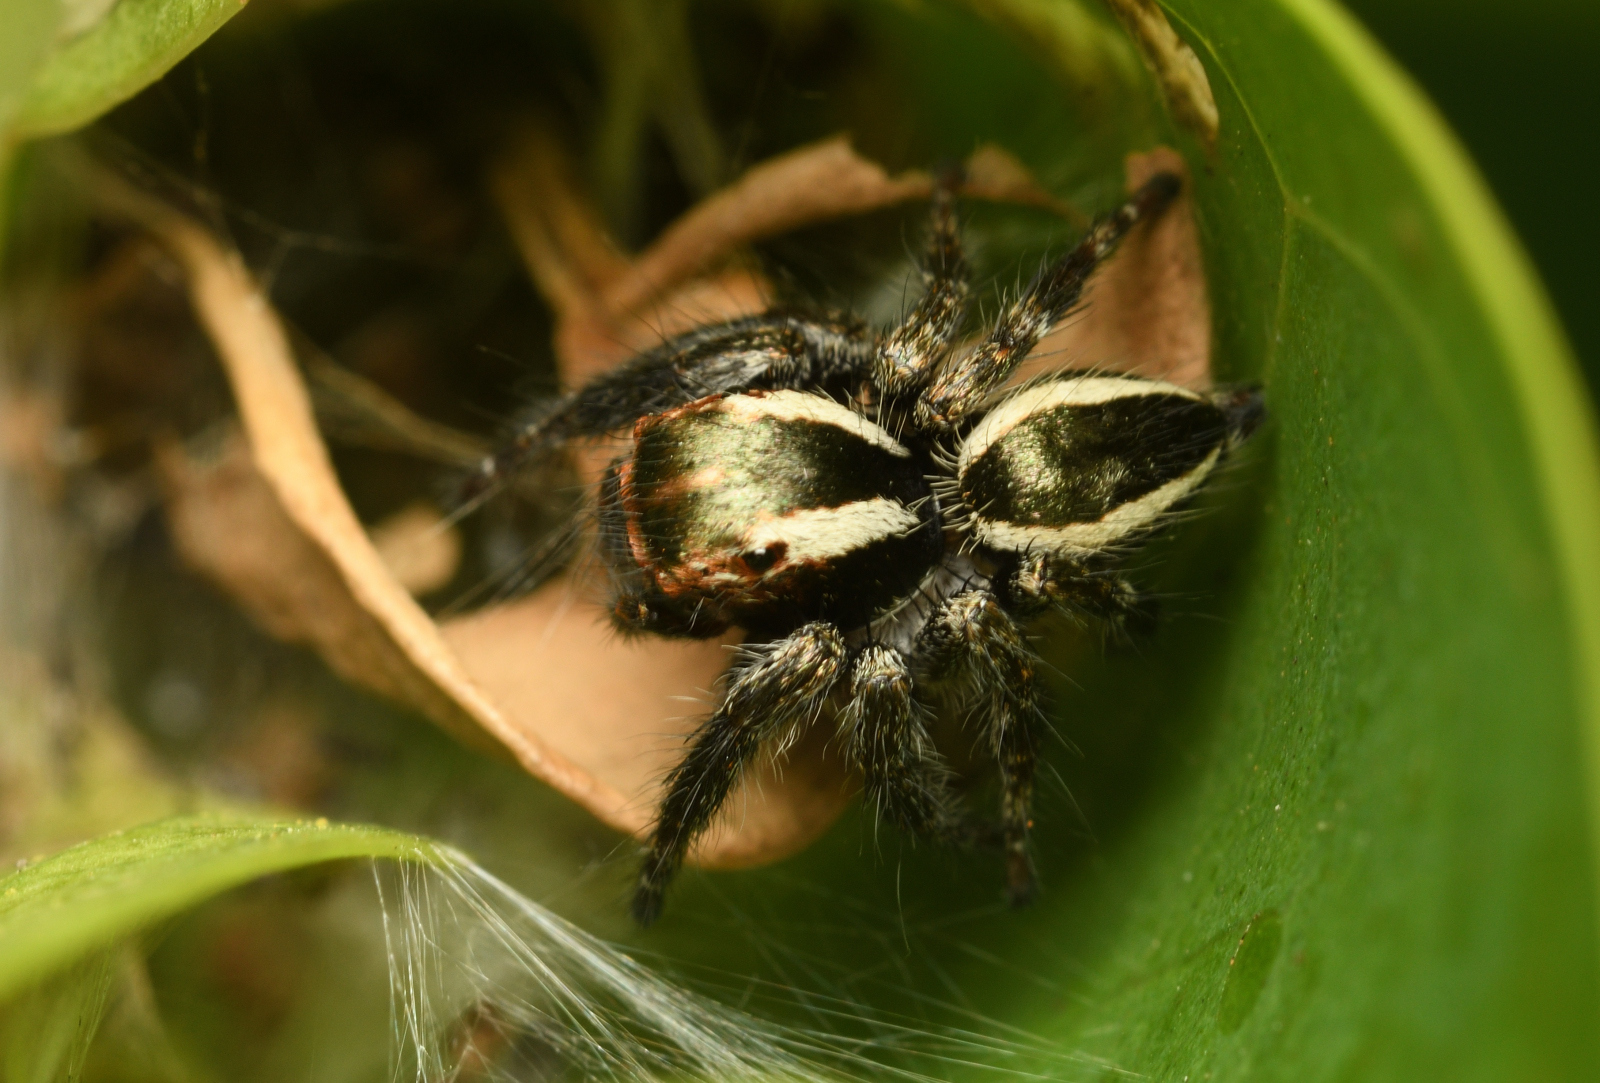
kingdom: Animalia
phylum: Arthropoda
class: Arachnida
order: Araneae
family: Salticidae
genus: Carrhotus
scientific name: Carrhotus viduus
